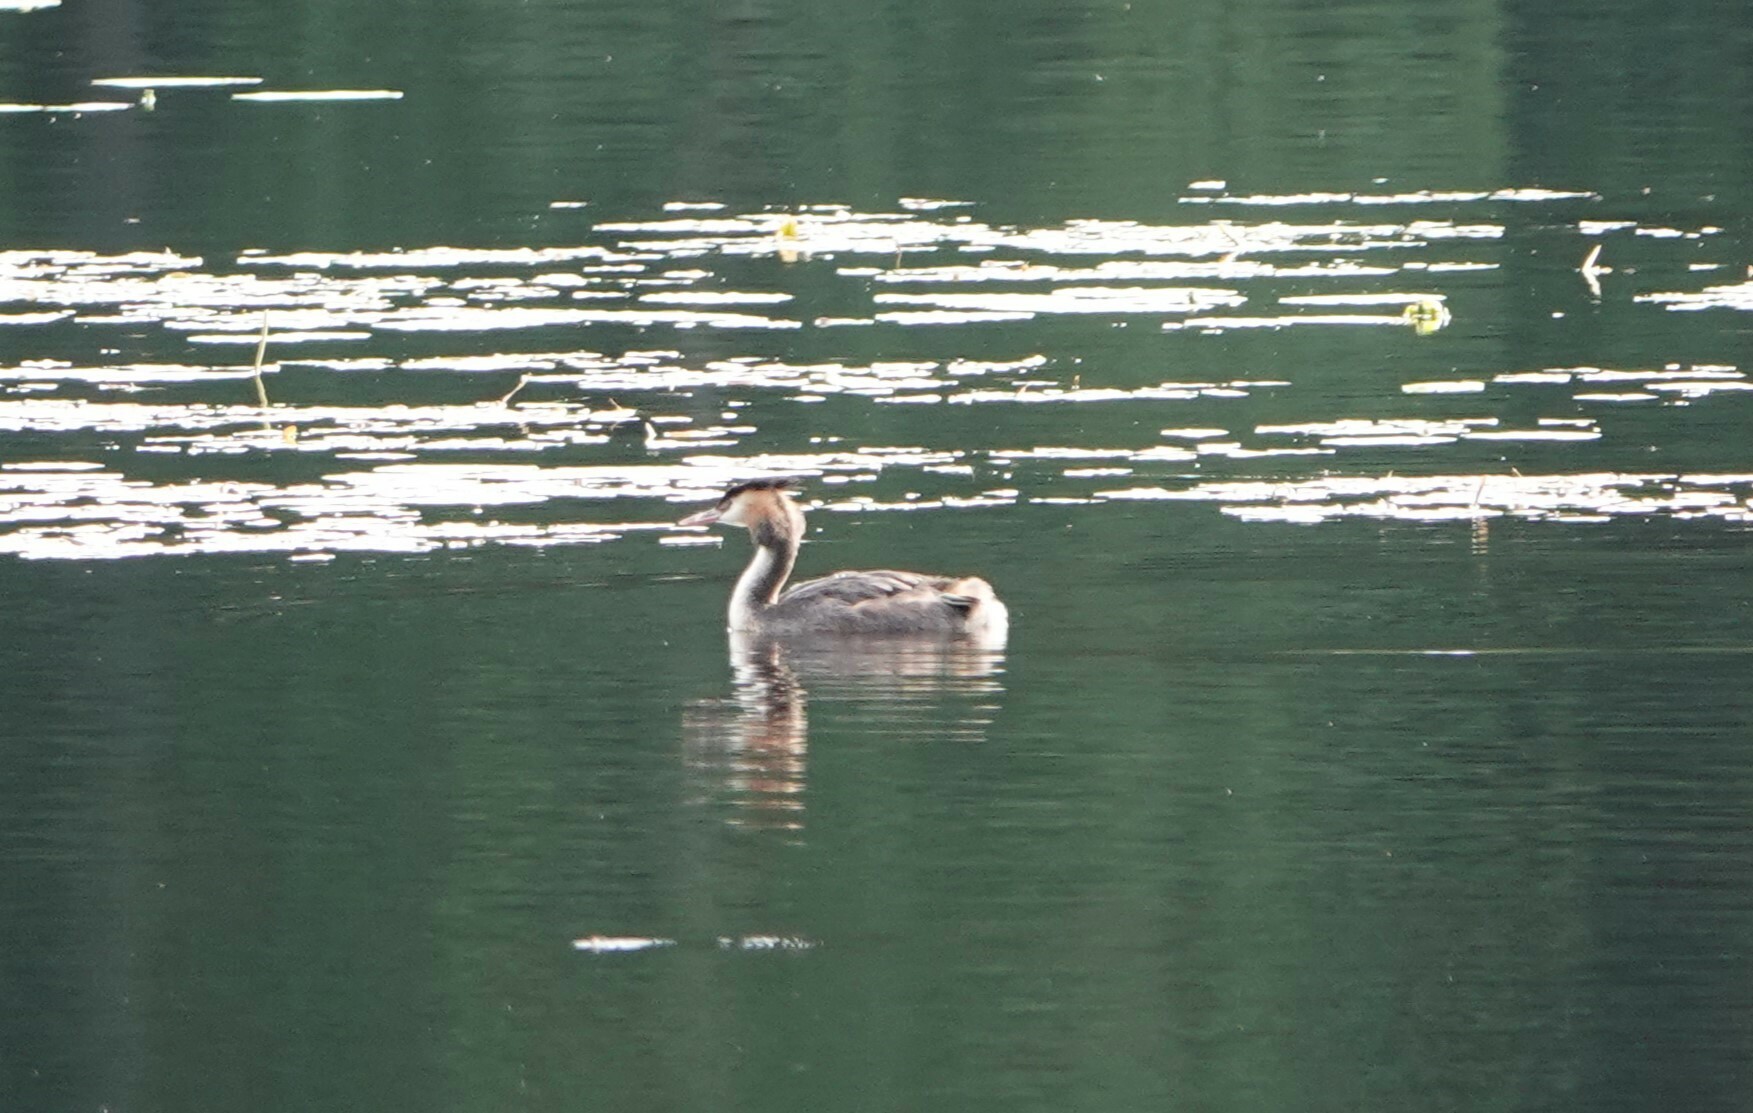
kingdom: Animalia
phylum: Chordata
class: Aves
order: Podicipediformes
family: Podicipedidae
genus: Podiceps
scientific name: Podiceps cristatus
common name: Great crested grebe
